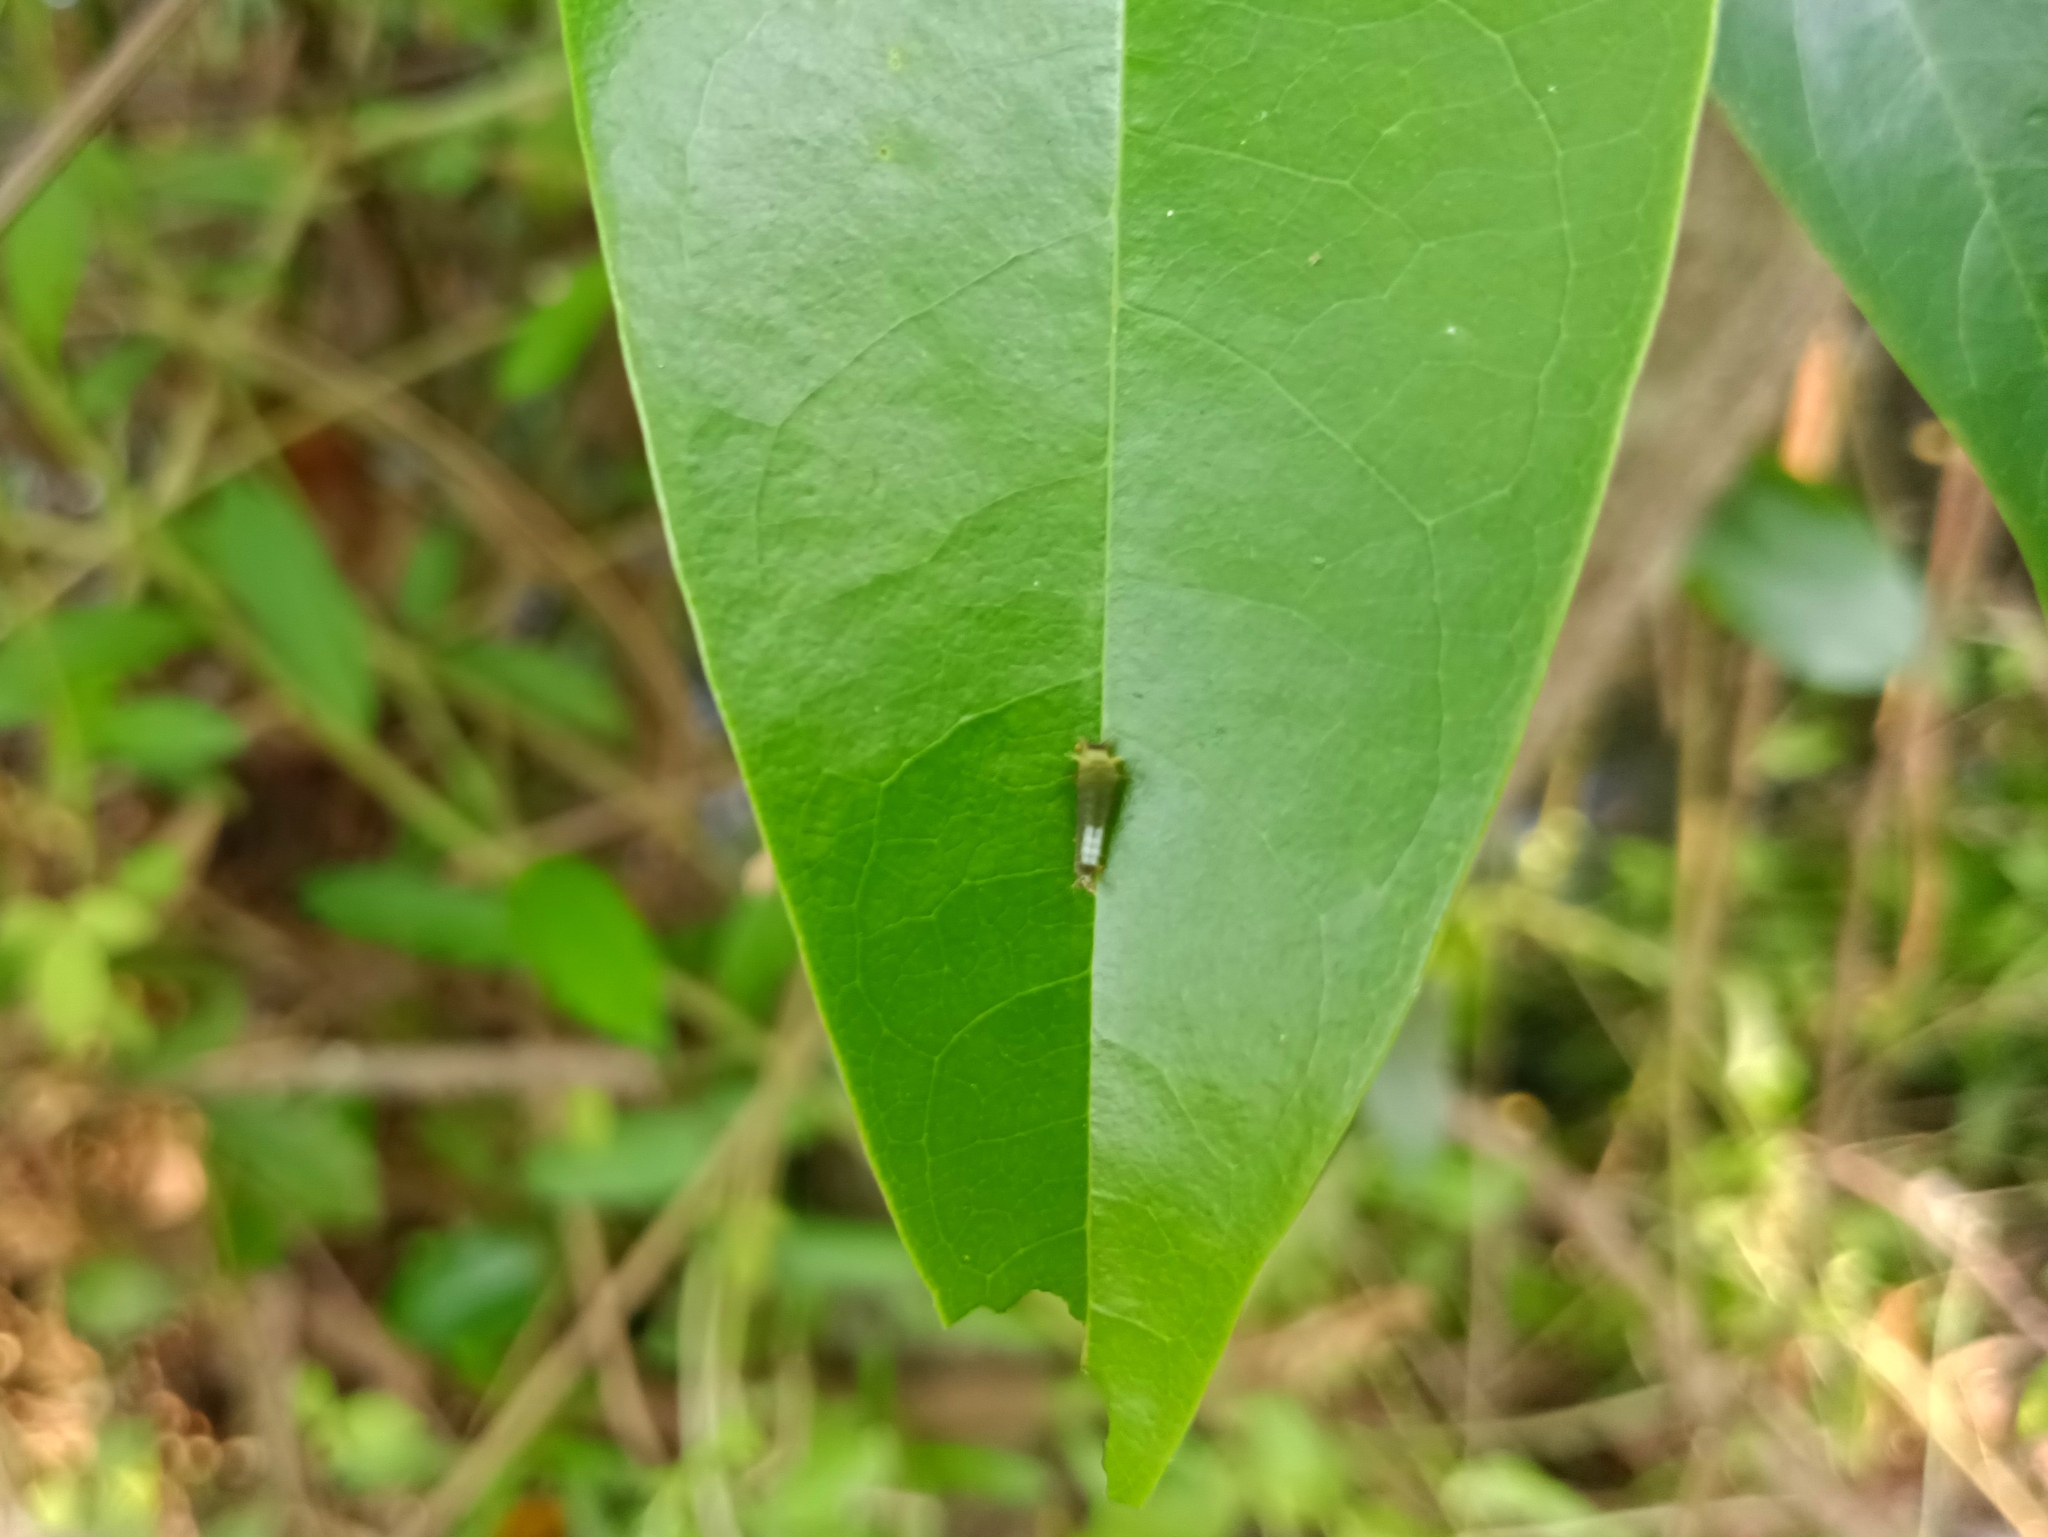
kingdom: Animalia
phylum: Arthropoda
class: Insecta
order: Lepidoptera
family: Papilionidae
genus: Graphium
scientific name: Graphium agamemnon
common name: Tailed jay
